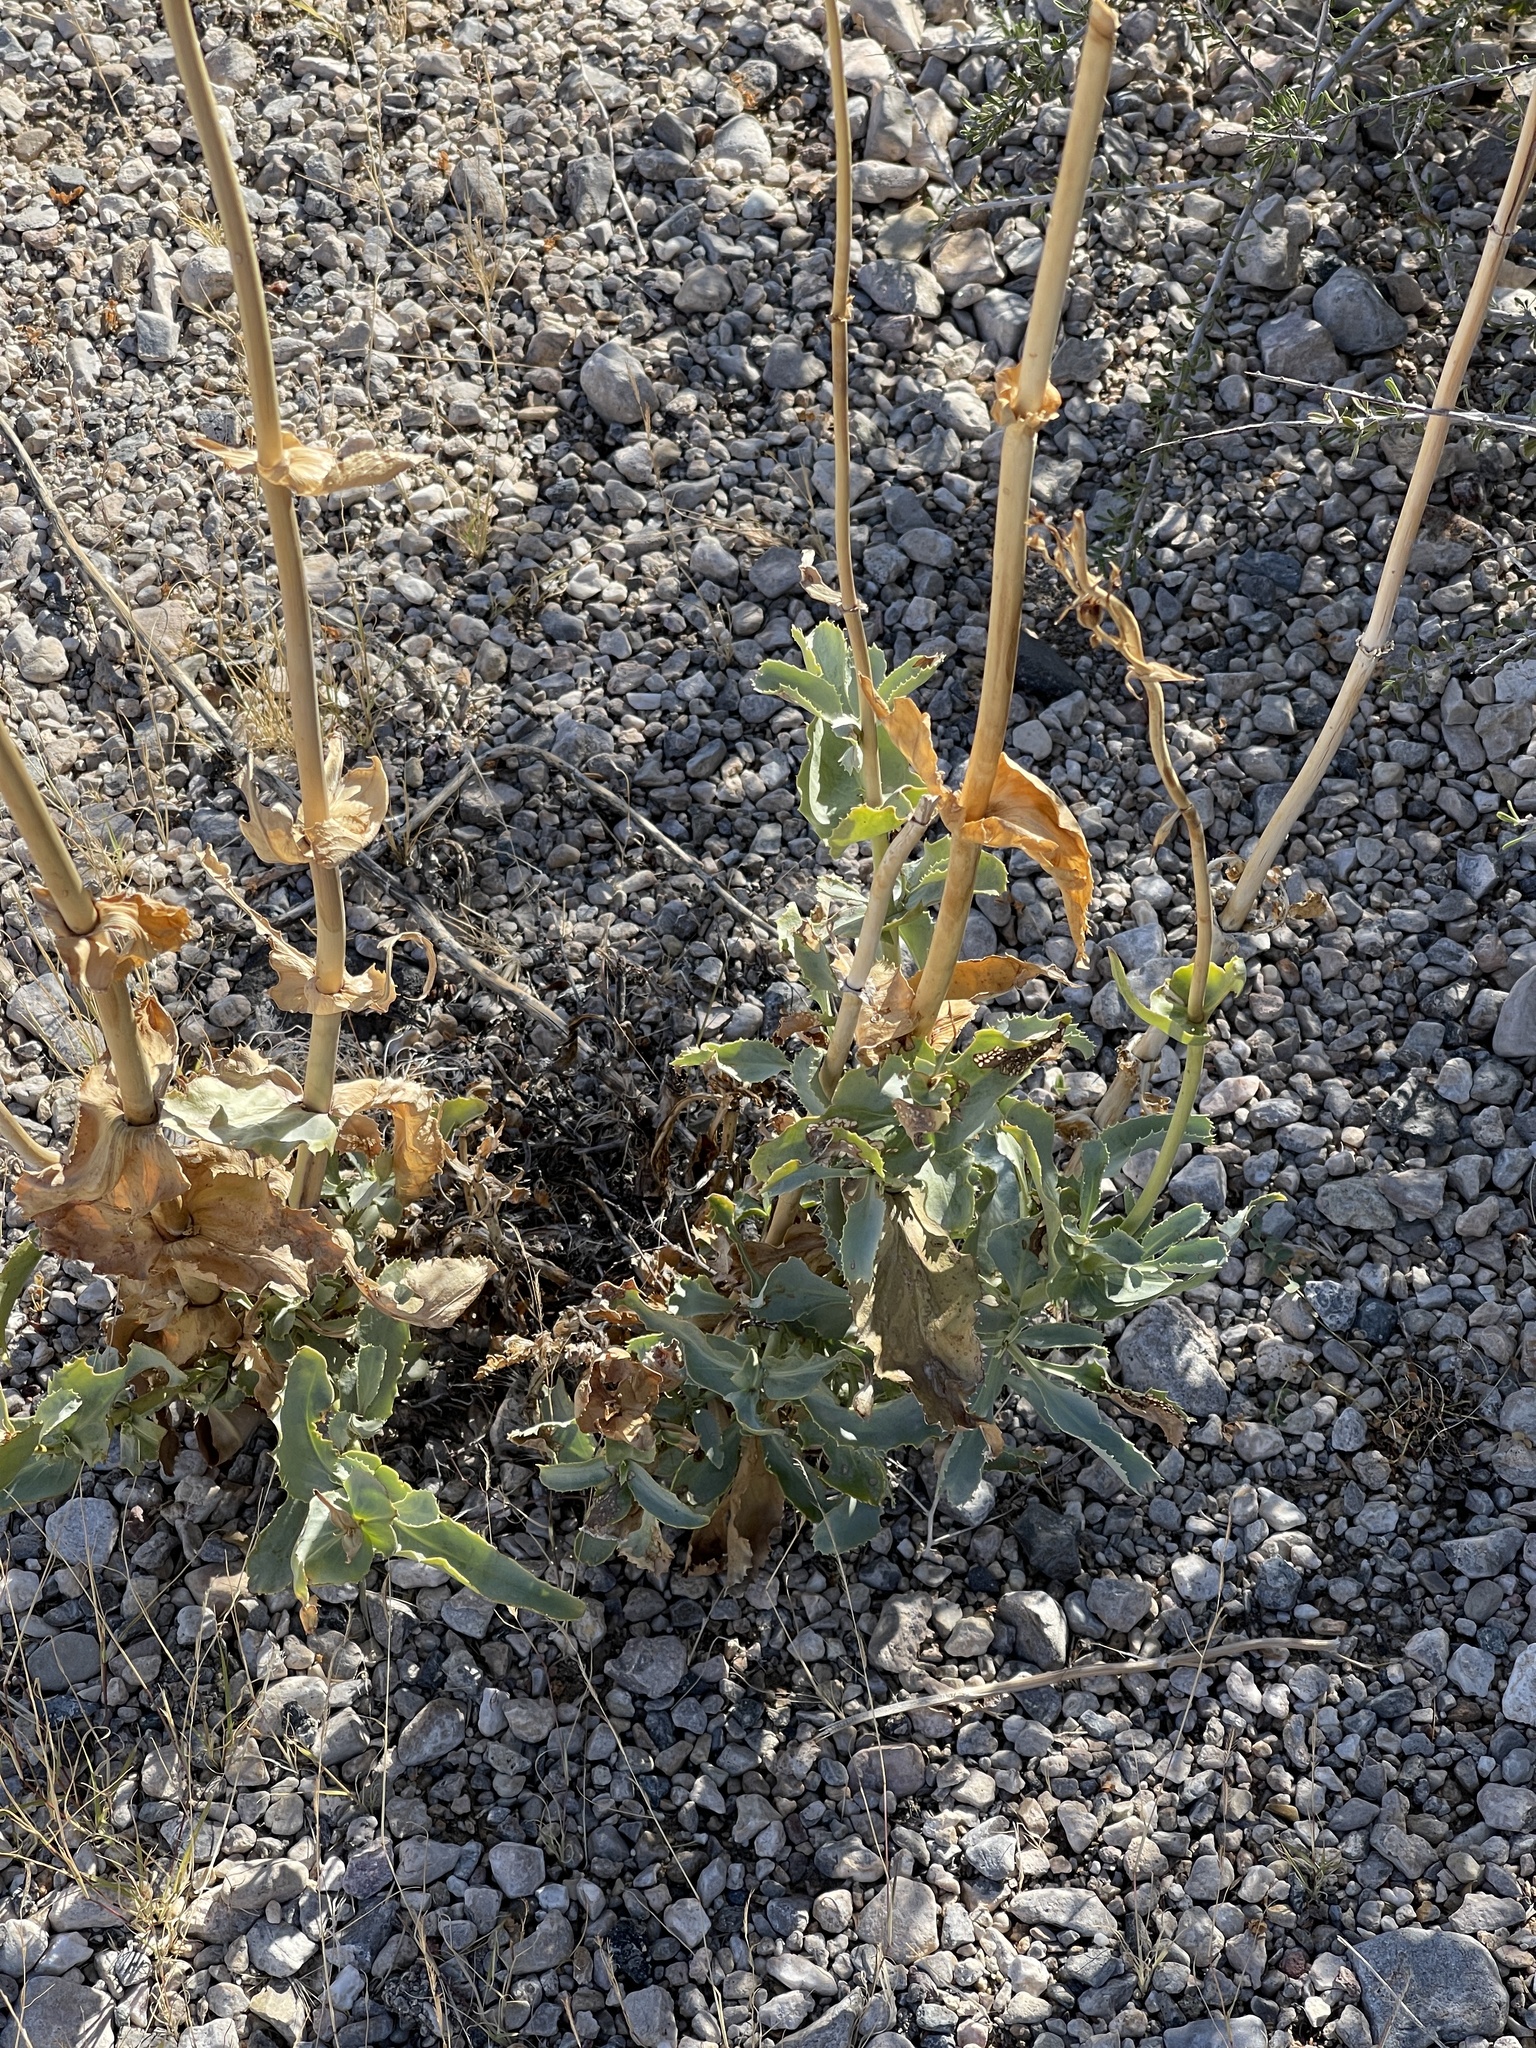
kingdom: Plantae
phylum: Tracheophyta
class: Magnoliopsida
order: Lamiales
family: Plantaginaceae
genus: Penstemon
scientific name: Penstemon palmeri
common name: Palmer penstemon
